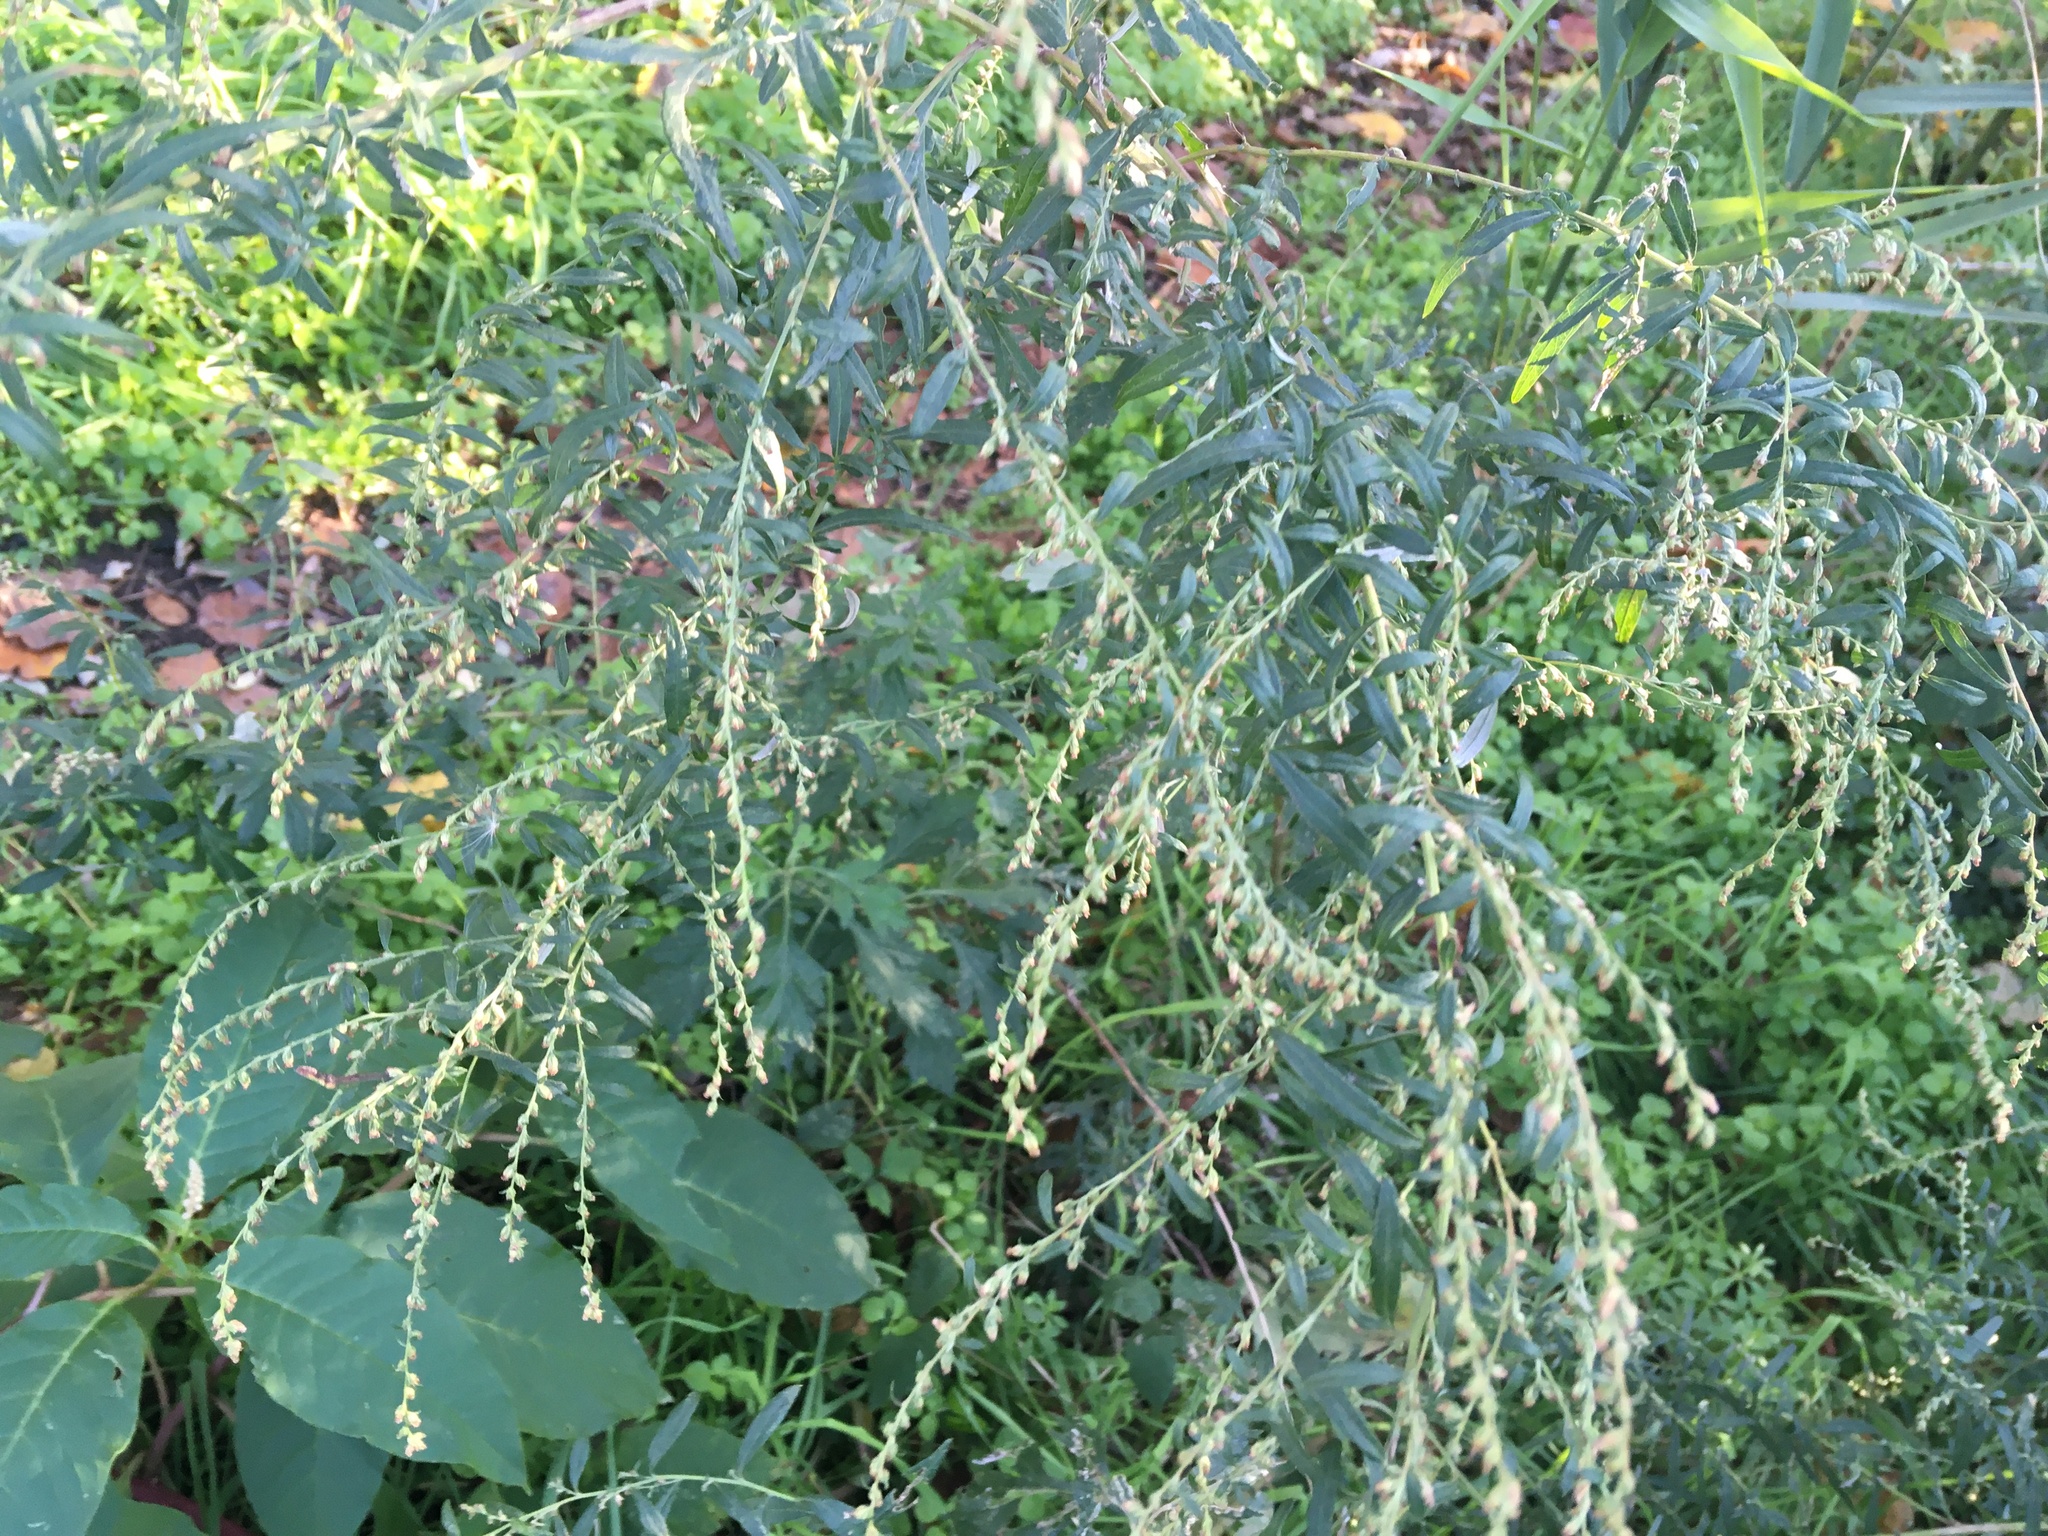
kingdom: Plantae
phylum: Tracheophyta
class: Magnoliopsida
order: Asterales
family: Asteraceae
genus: Artemisia
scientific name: Artemisia vulgaris
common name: Mugwort
